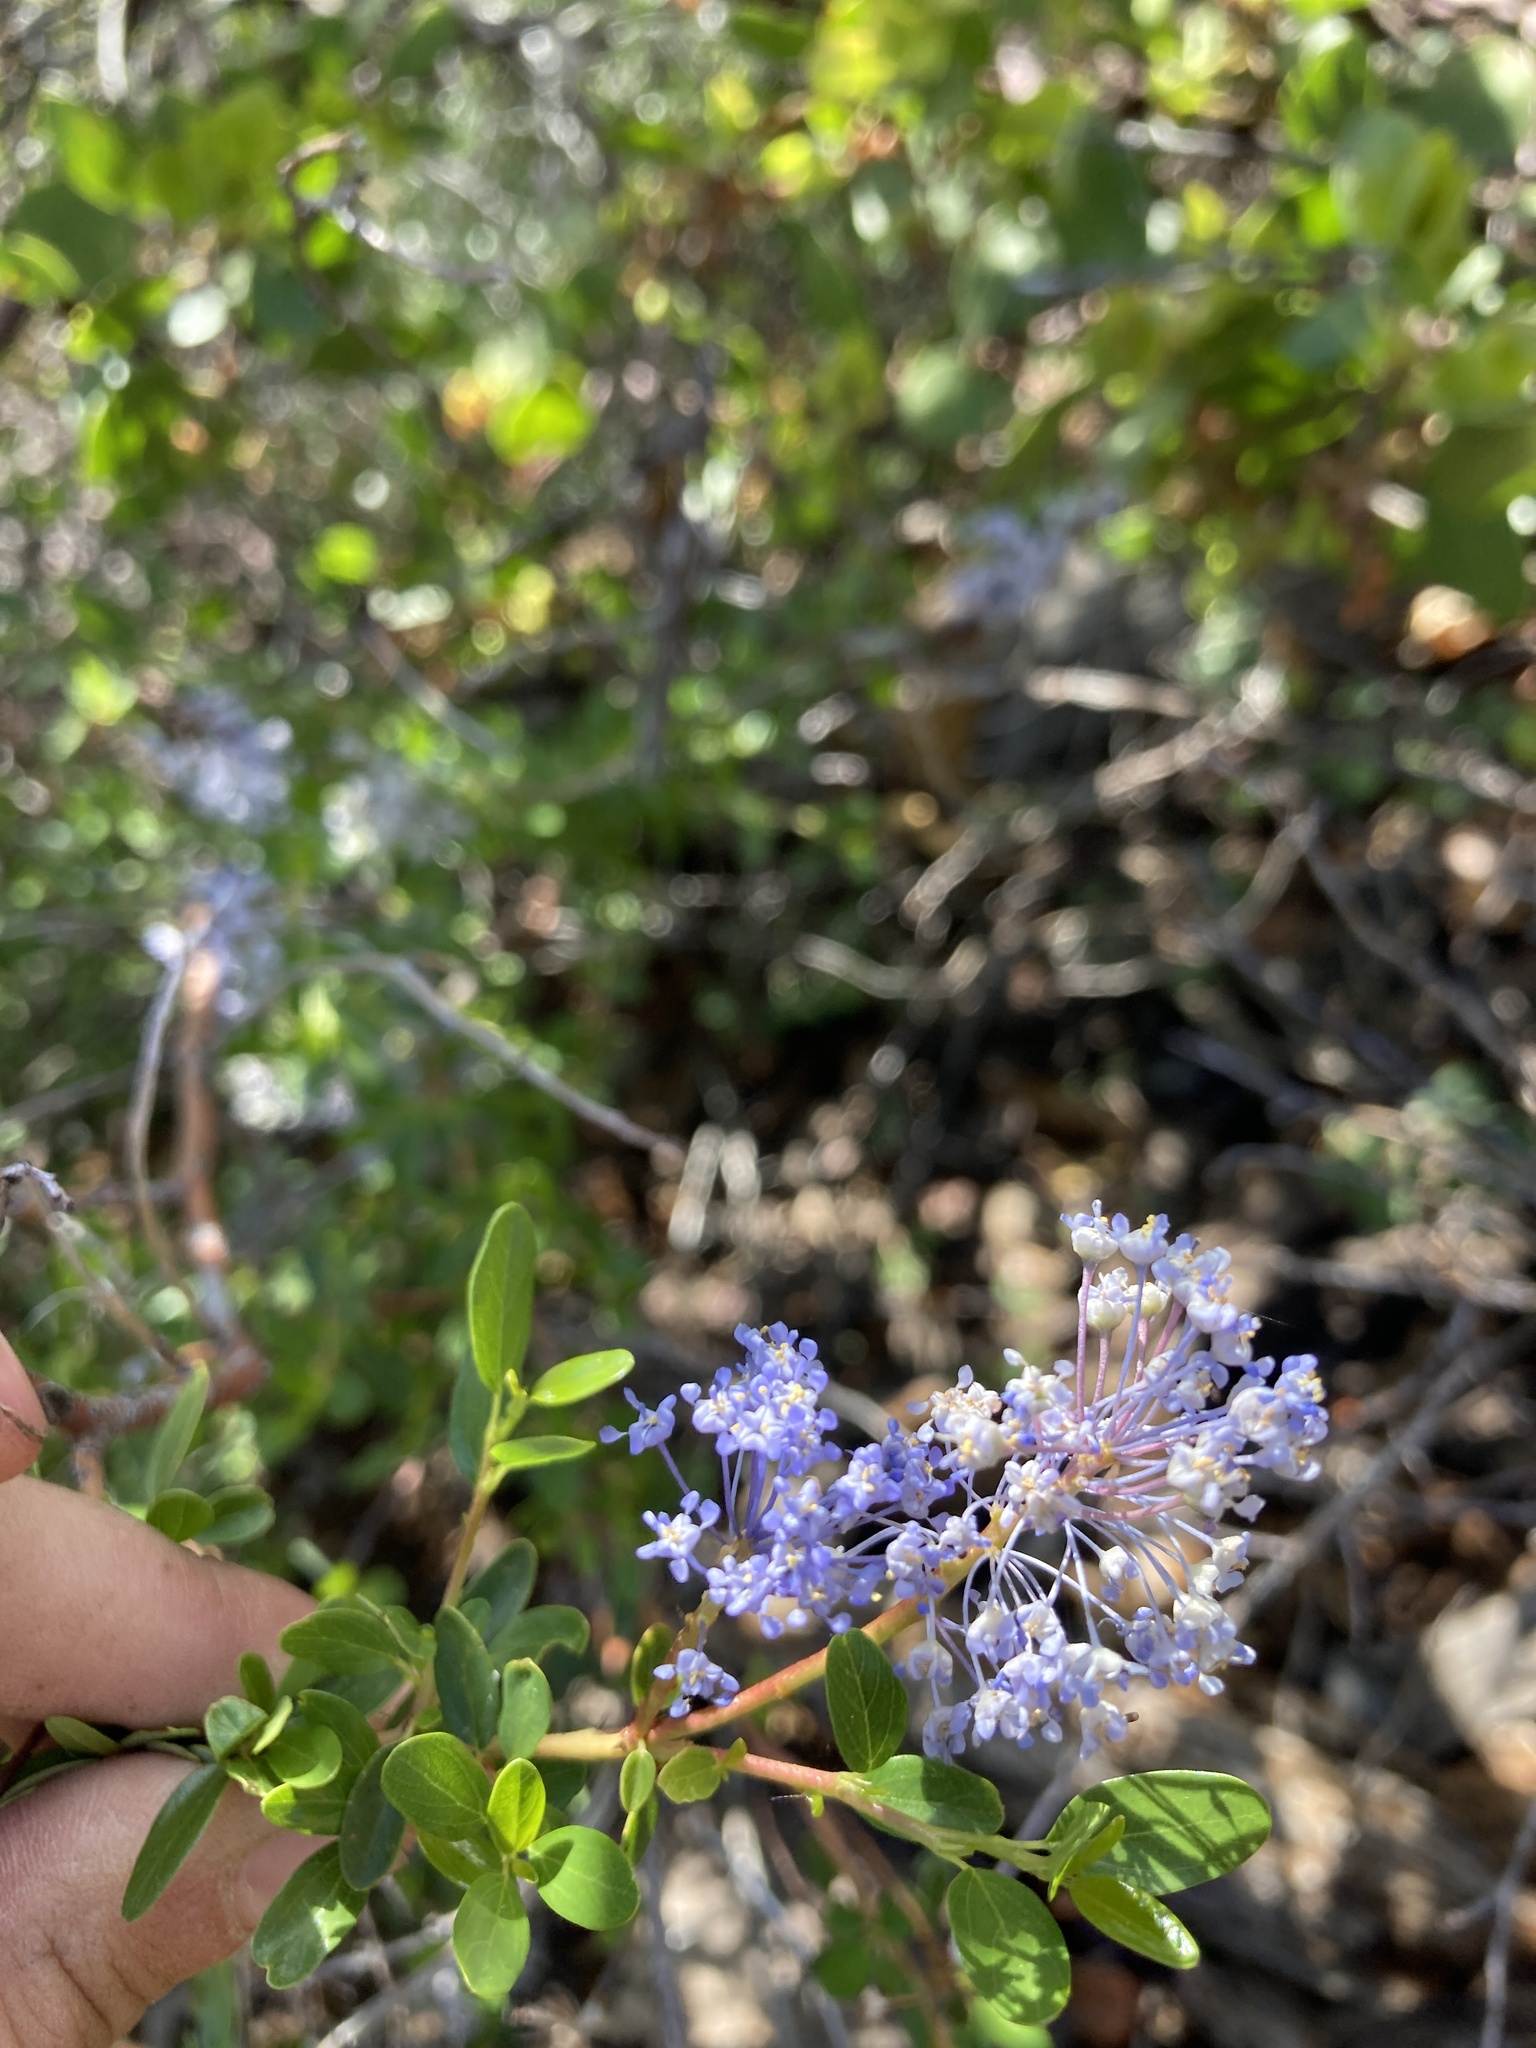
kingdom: Plantae
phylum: Tracheophyta
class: Magnoliopsida
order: Rosales
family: Rhamnaceae
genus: Ceanothus
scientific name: Ceanothus parvifolius
